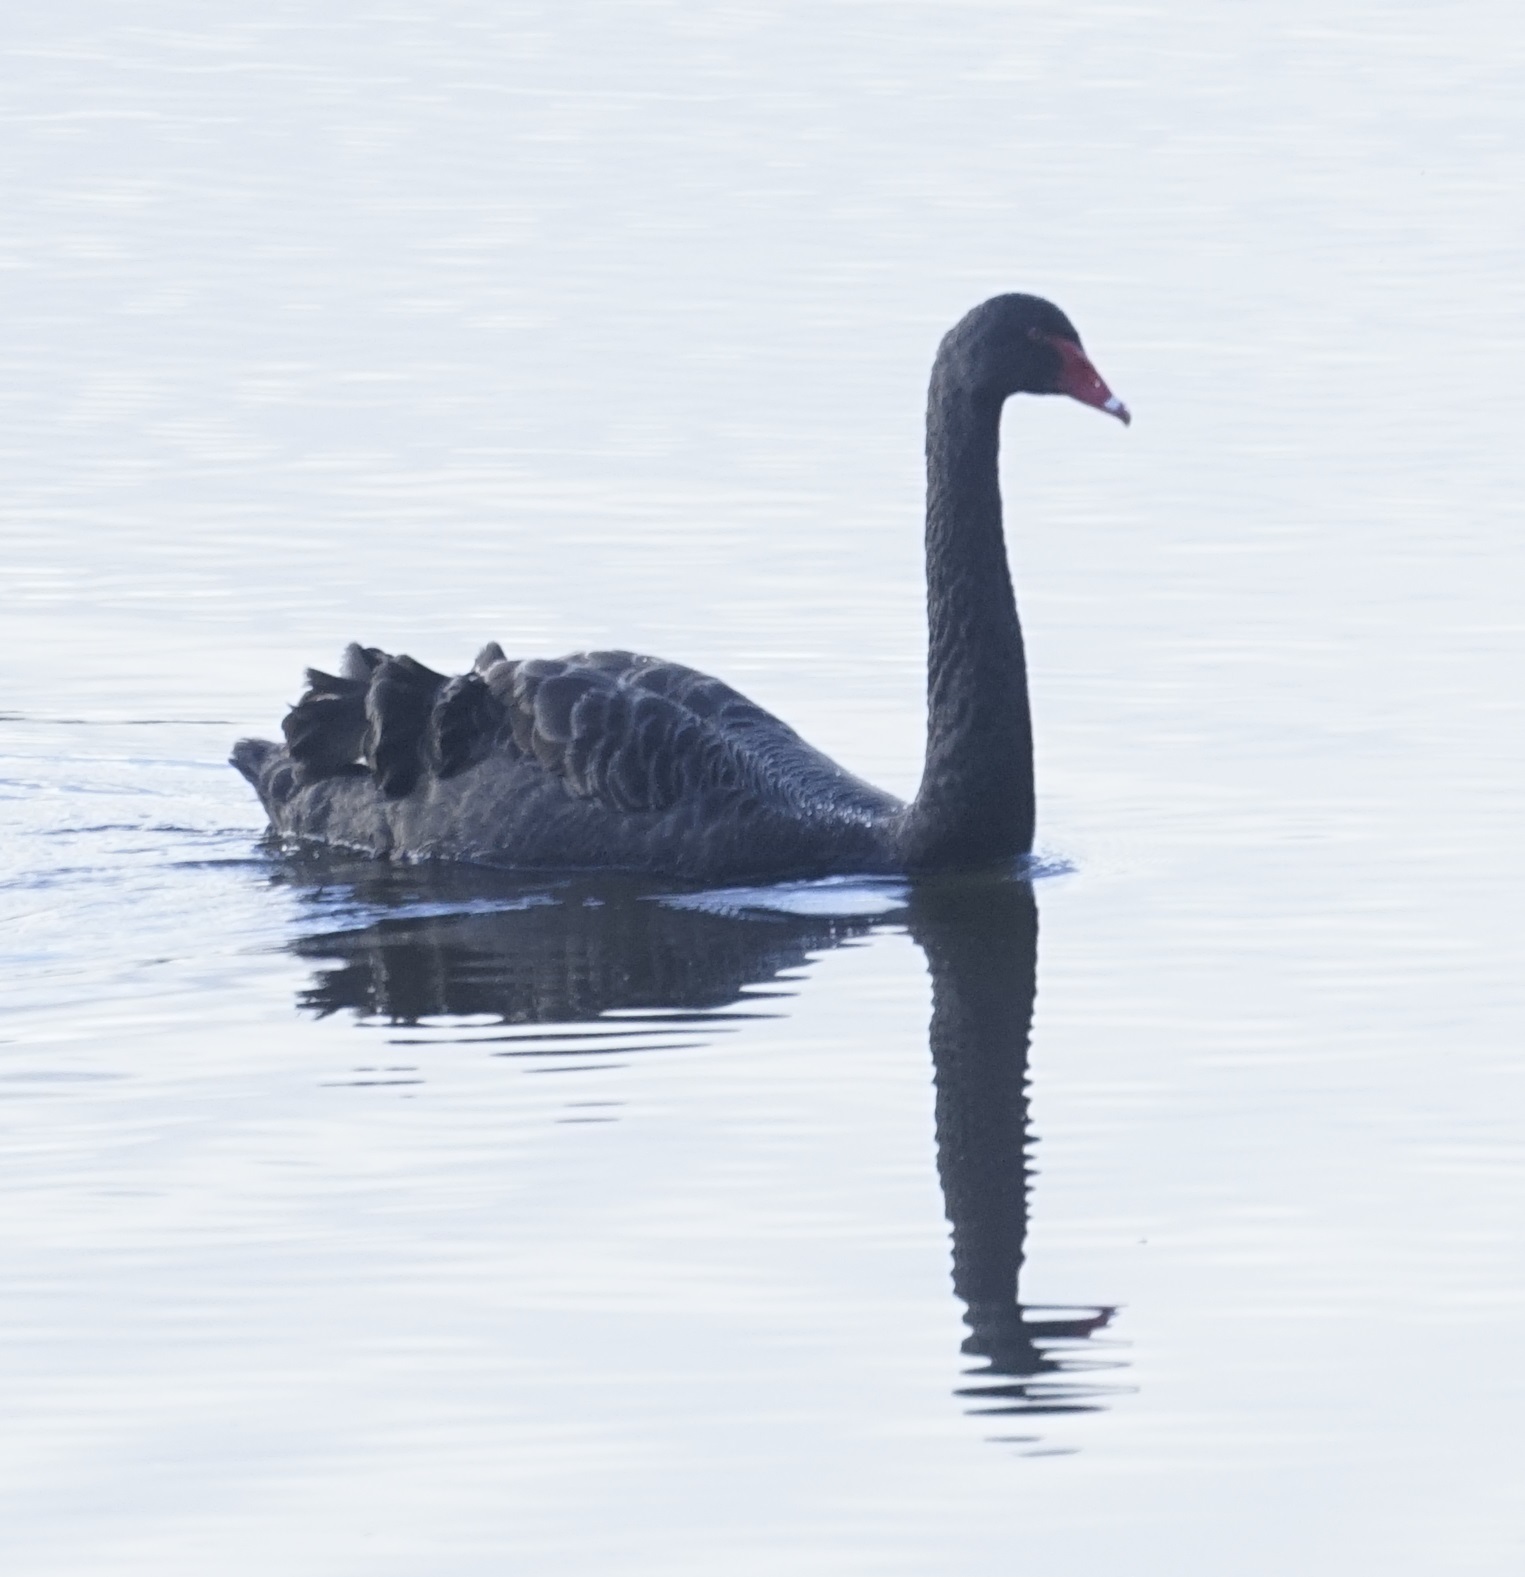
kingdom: Animalia
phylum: Chordata
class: Aves
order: Anseriformes
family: Anatidae
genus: Cygnus
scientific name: Cygnus atratus
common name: Black swan
